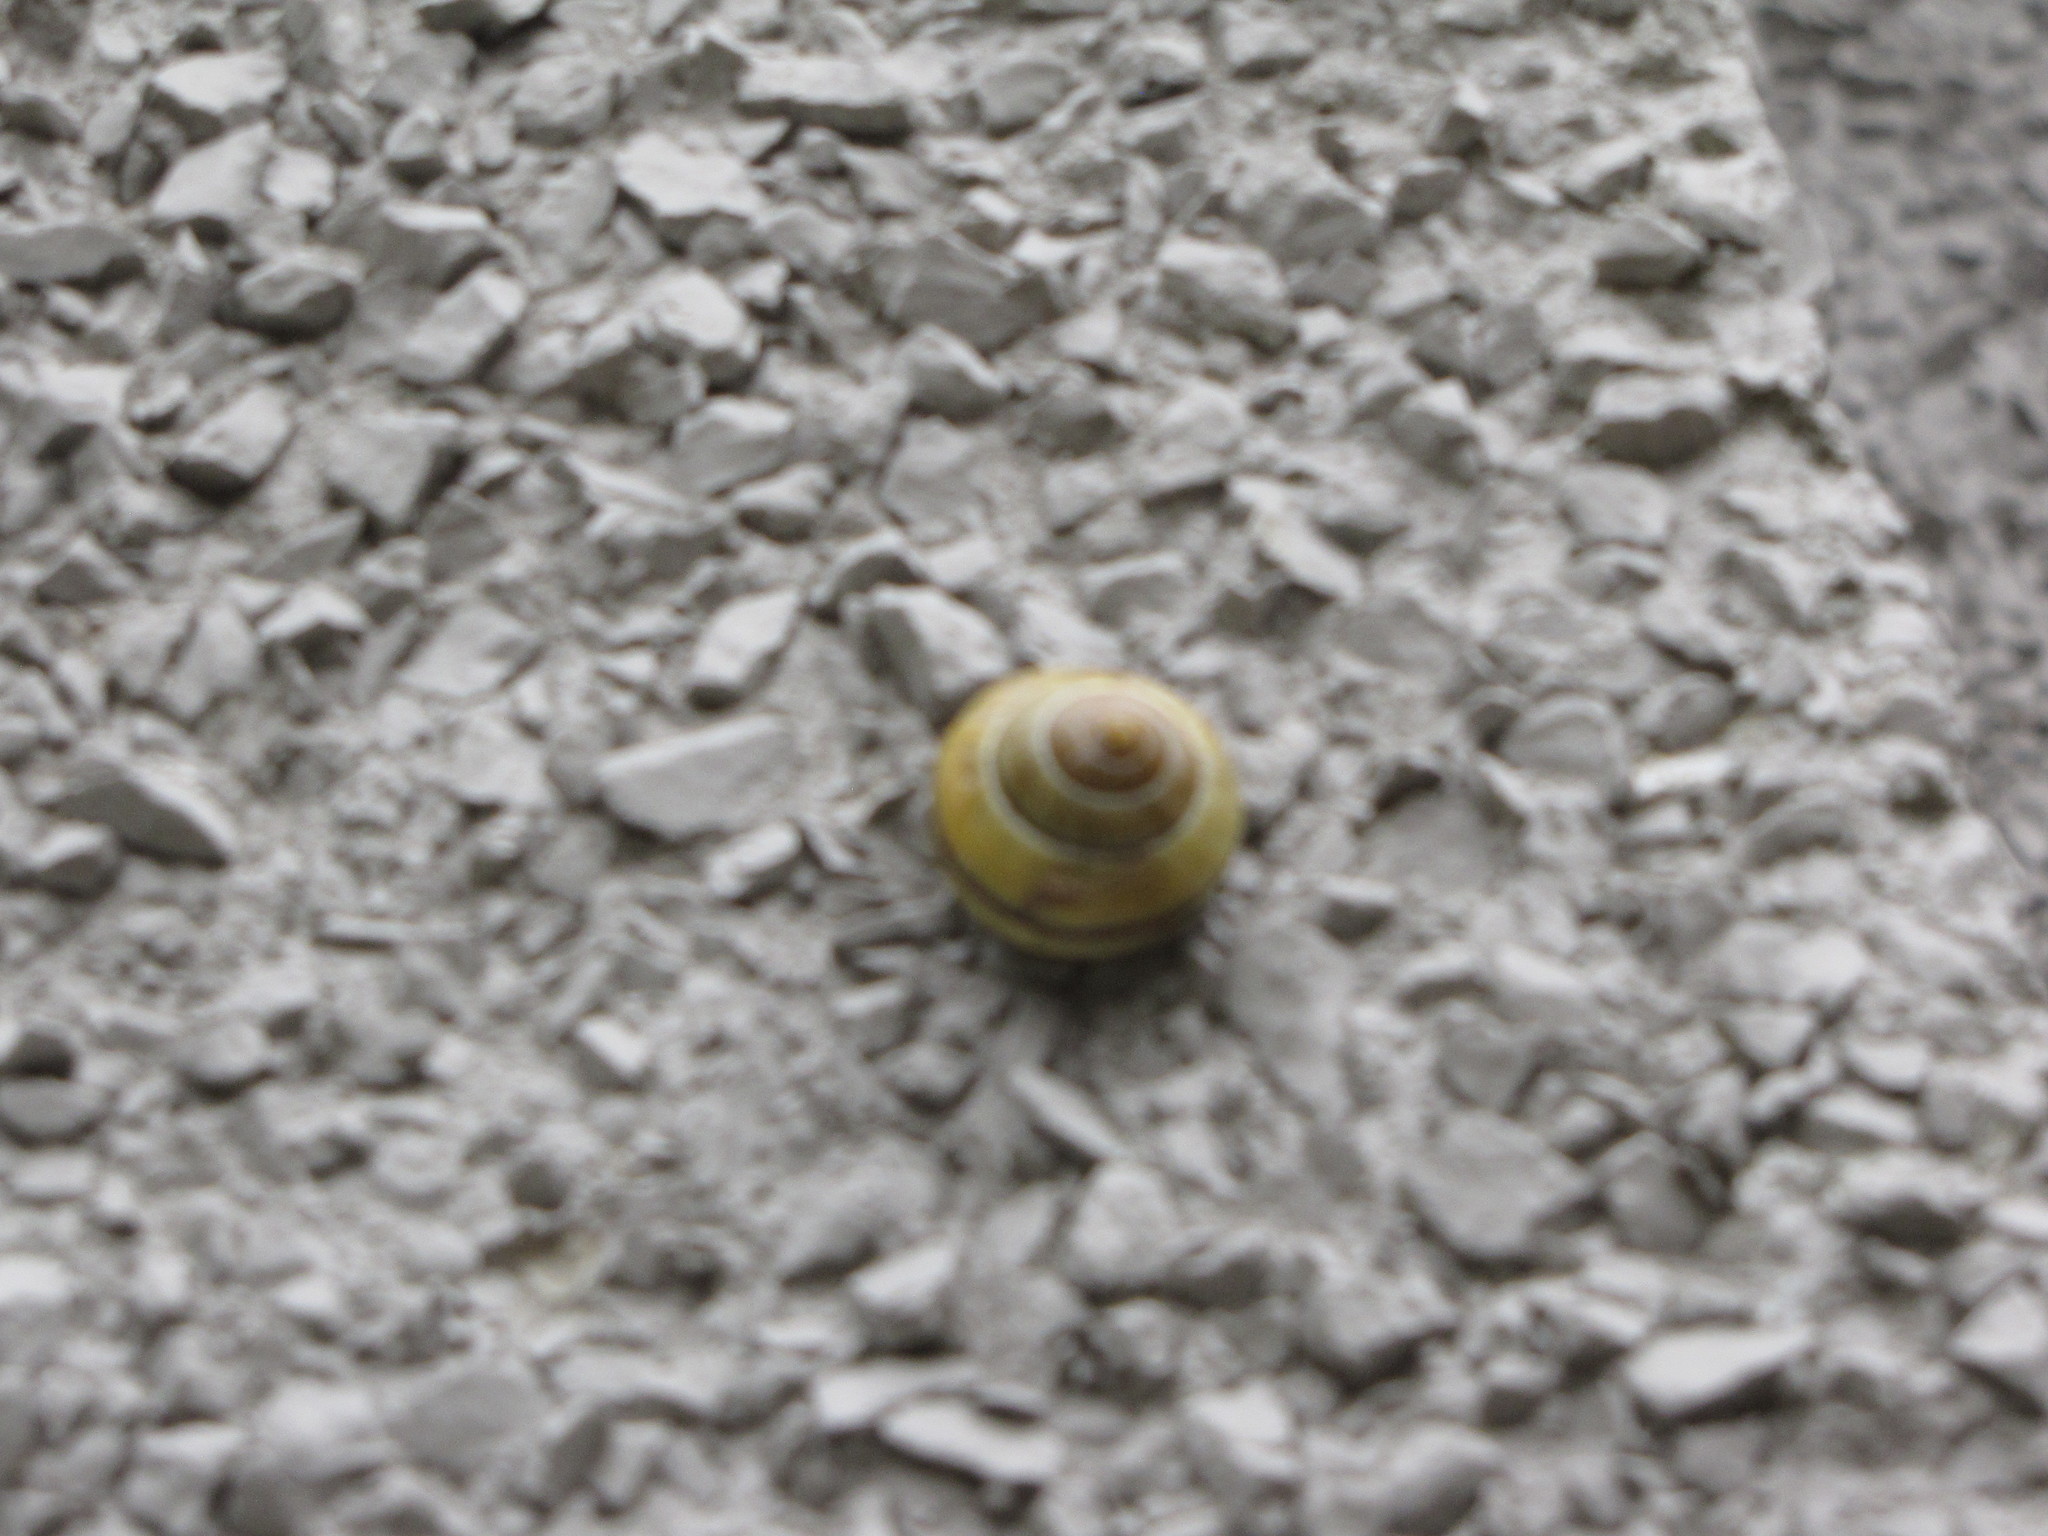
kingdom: Animalia
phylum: Mollusca
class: Gastropoda
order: Stylommatophora
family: Helicidae
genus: Cepaea
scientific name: Cepaea nemoralis
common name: Grovesnail
